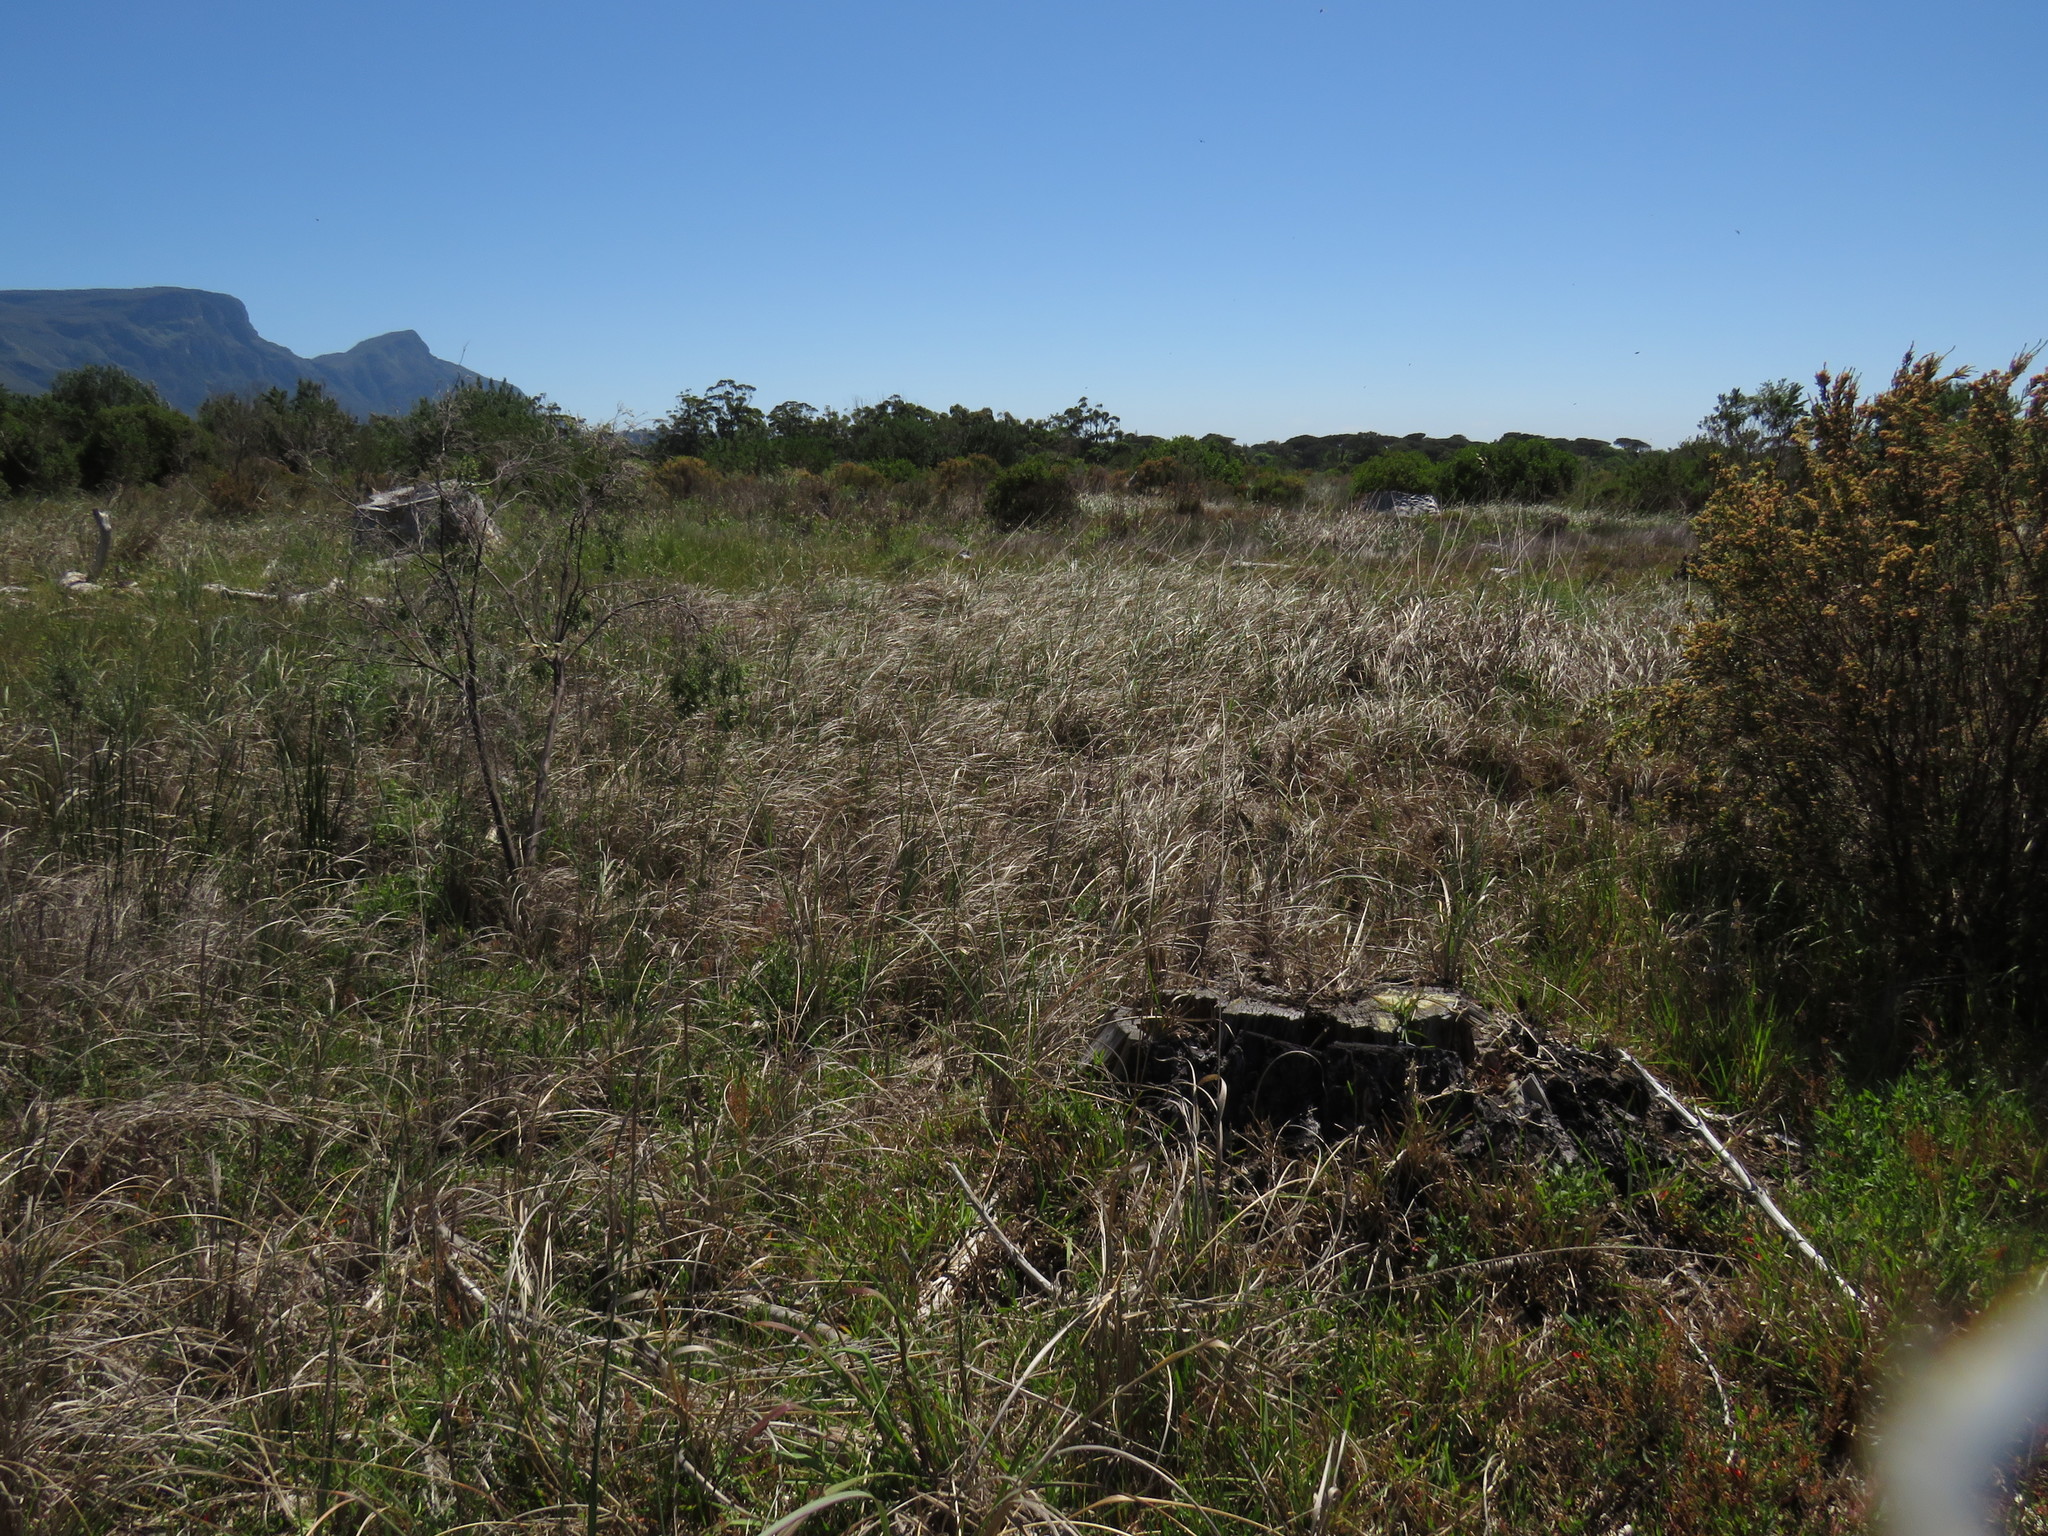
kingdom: Plantae
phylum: Tracheophyta
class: Liliopsida
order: Poales
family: Poaceae
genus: Cenchrus
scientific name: Cenchrus caudatus
